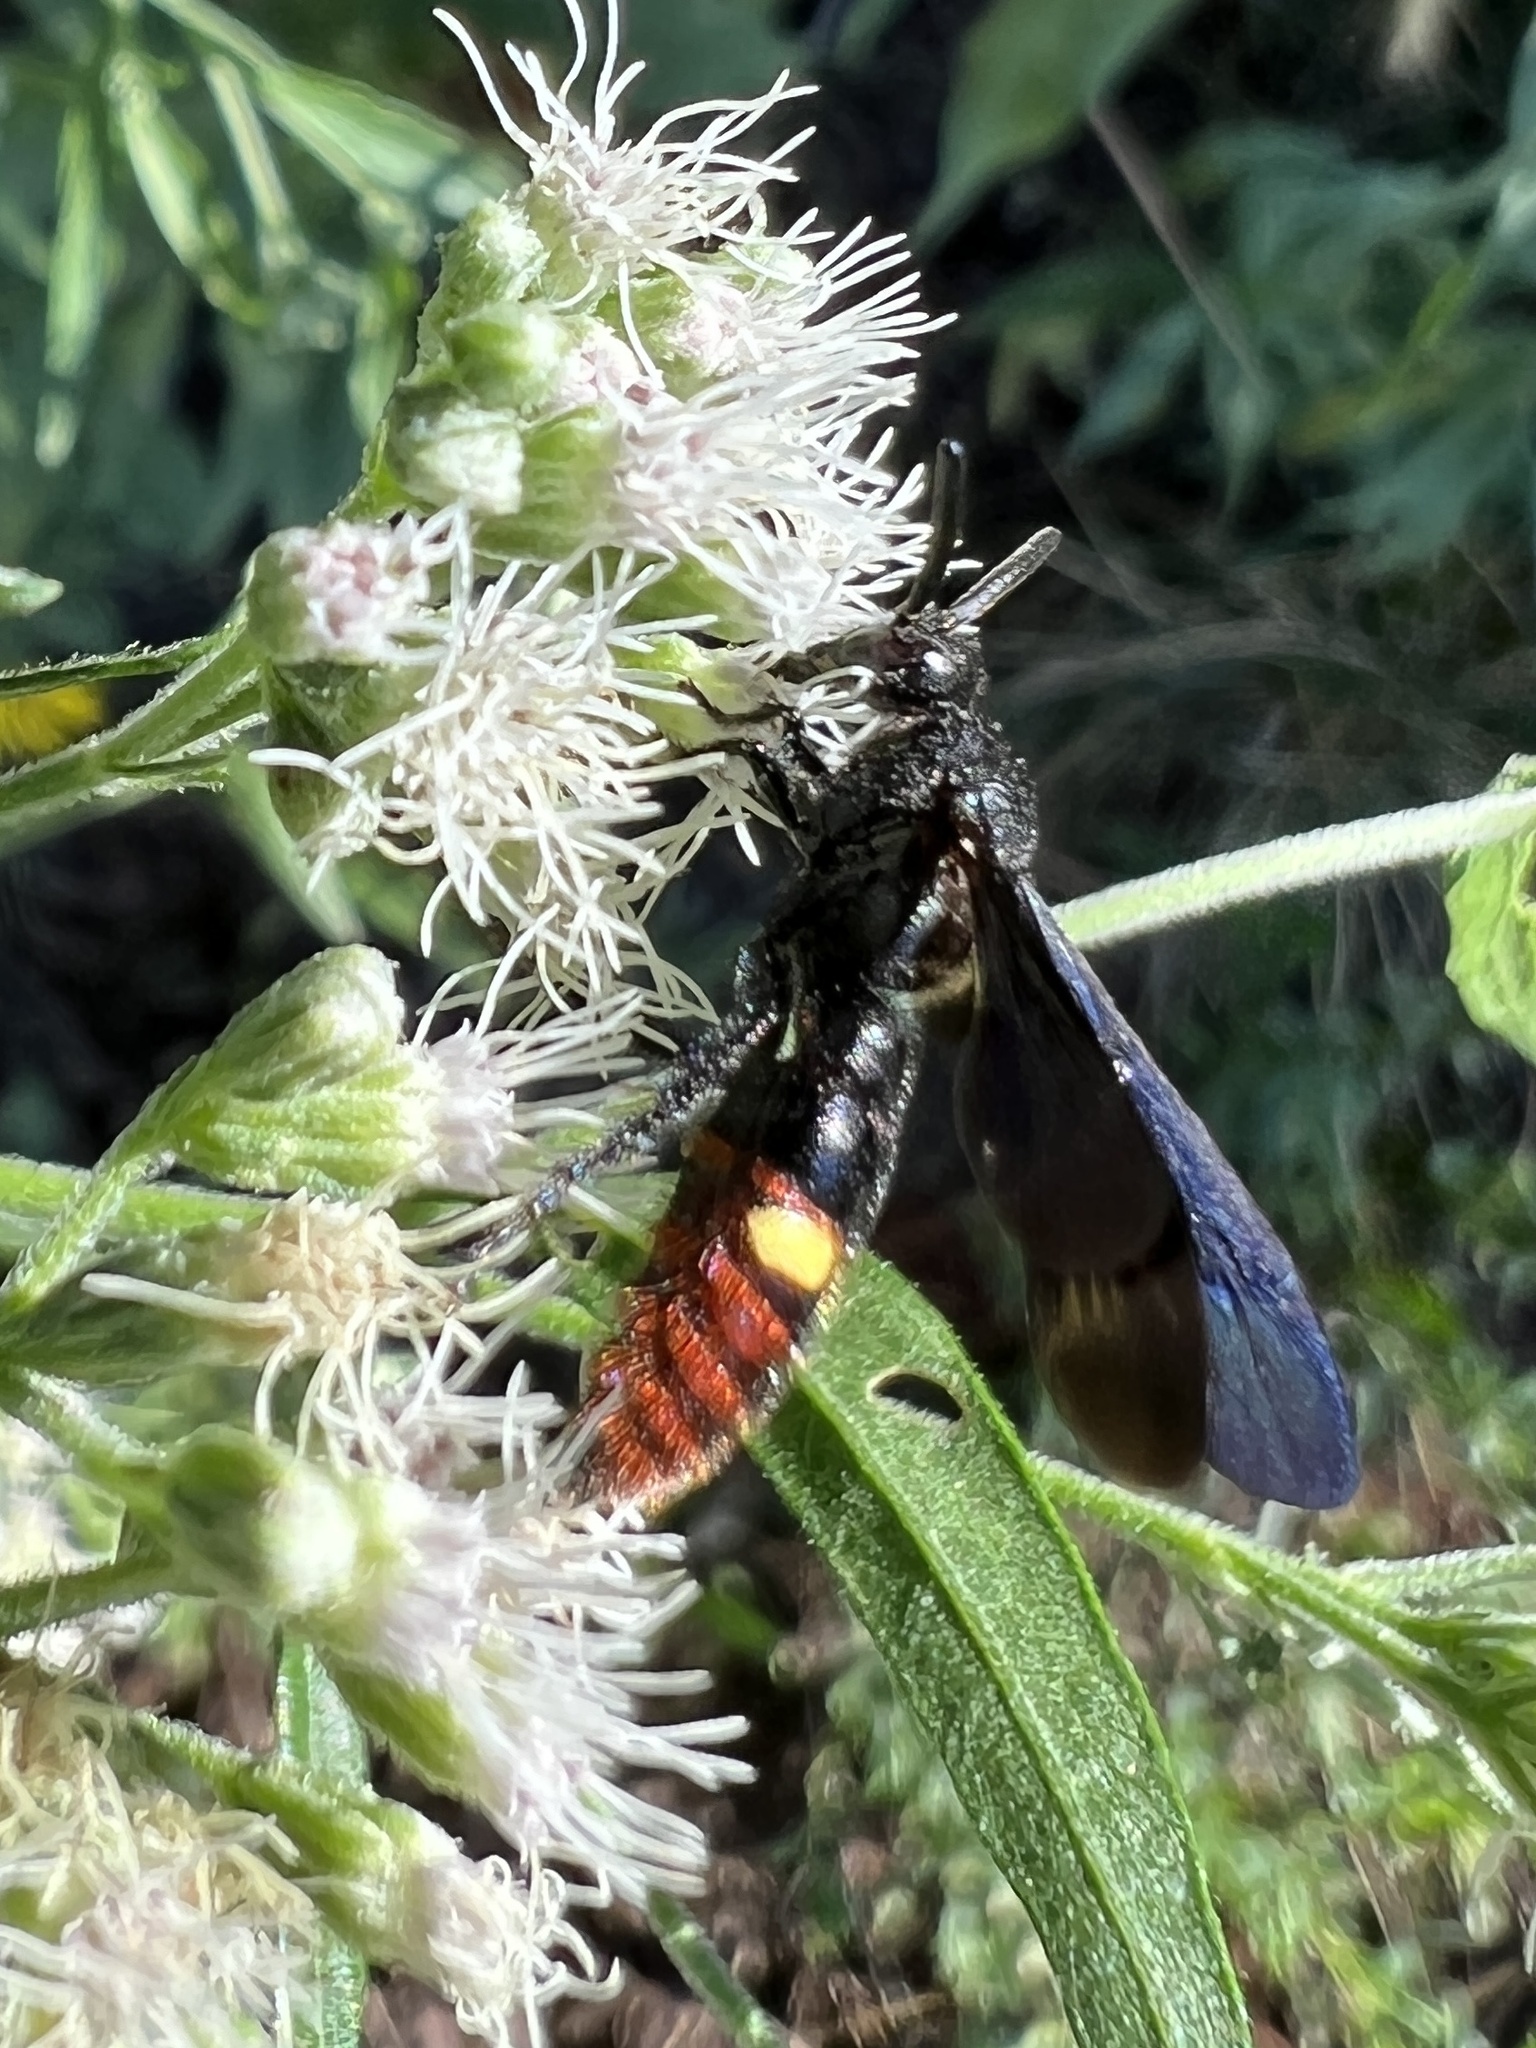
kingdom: Animalia
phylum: Arthropoda
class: Insecta
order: Hymenoptera
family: Scoliidae
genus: Scolia
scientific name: Scolia dubia
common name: Blue-winged scoliid wasp
